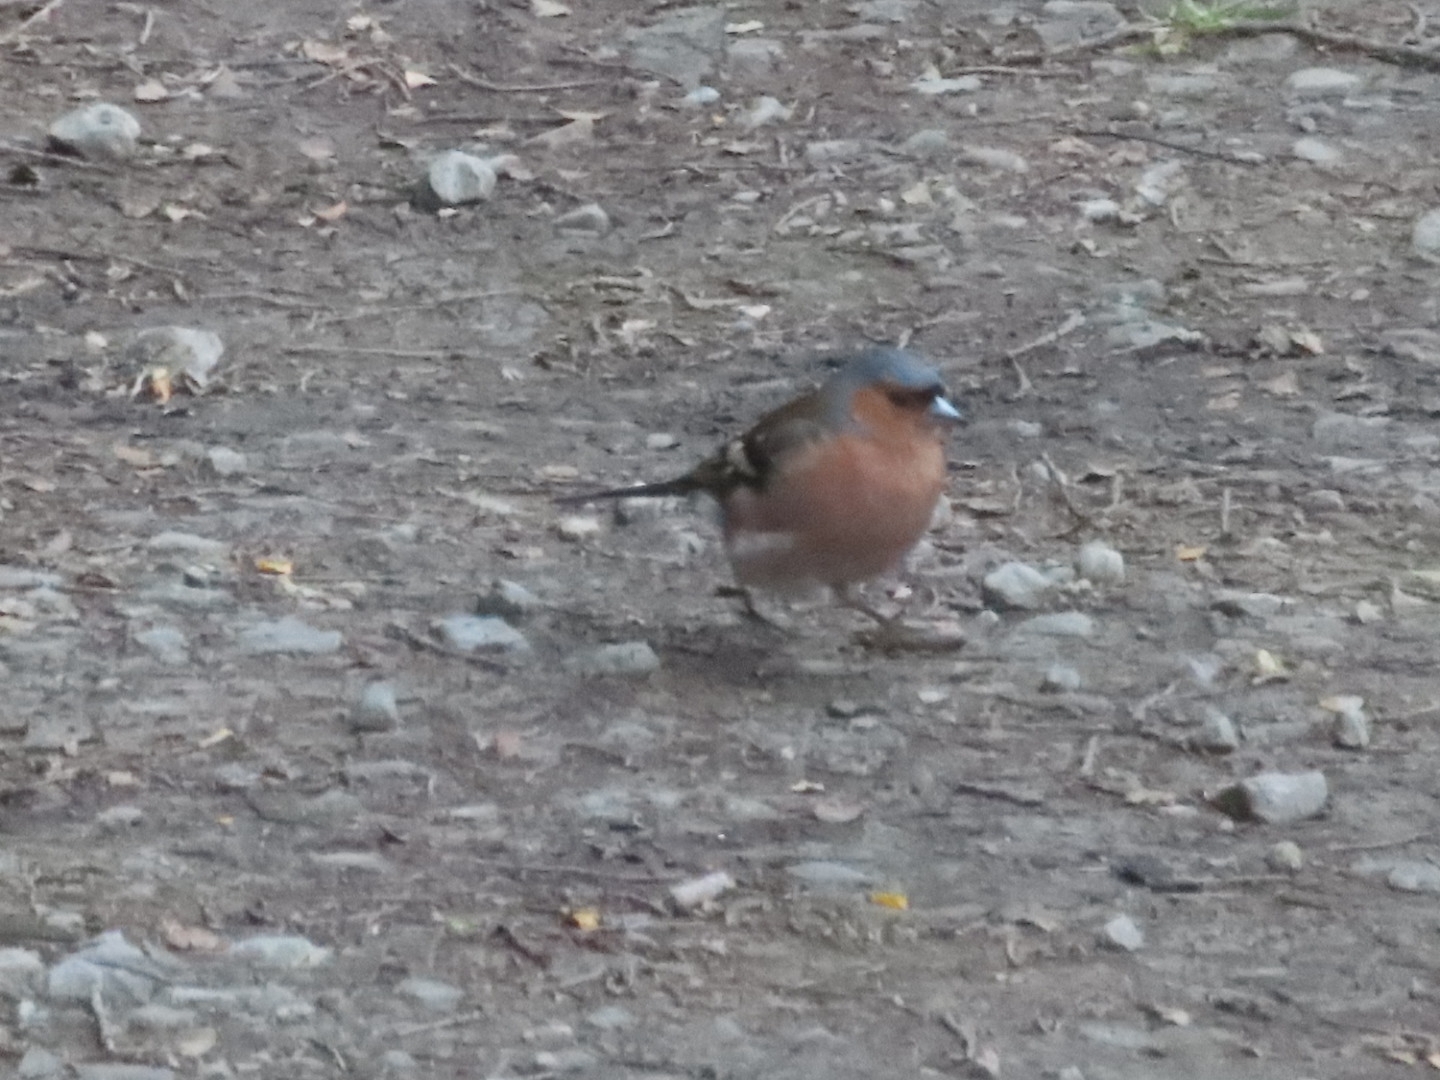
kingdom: Animalia
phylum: Chordata
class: Aves
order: Passeriformes
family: Fringillidae
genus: Fringilla
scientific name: Fringilla coelebs
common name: Common chaffinch
